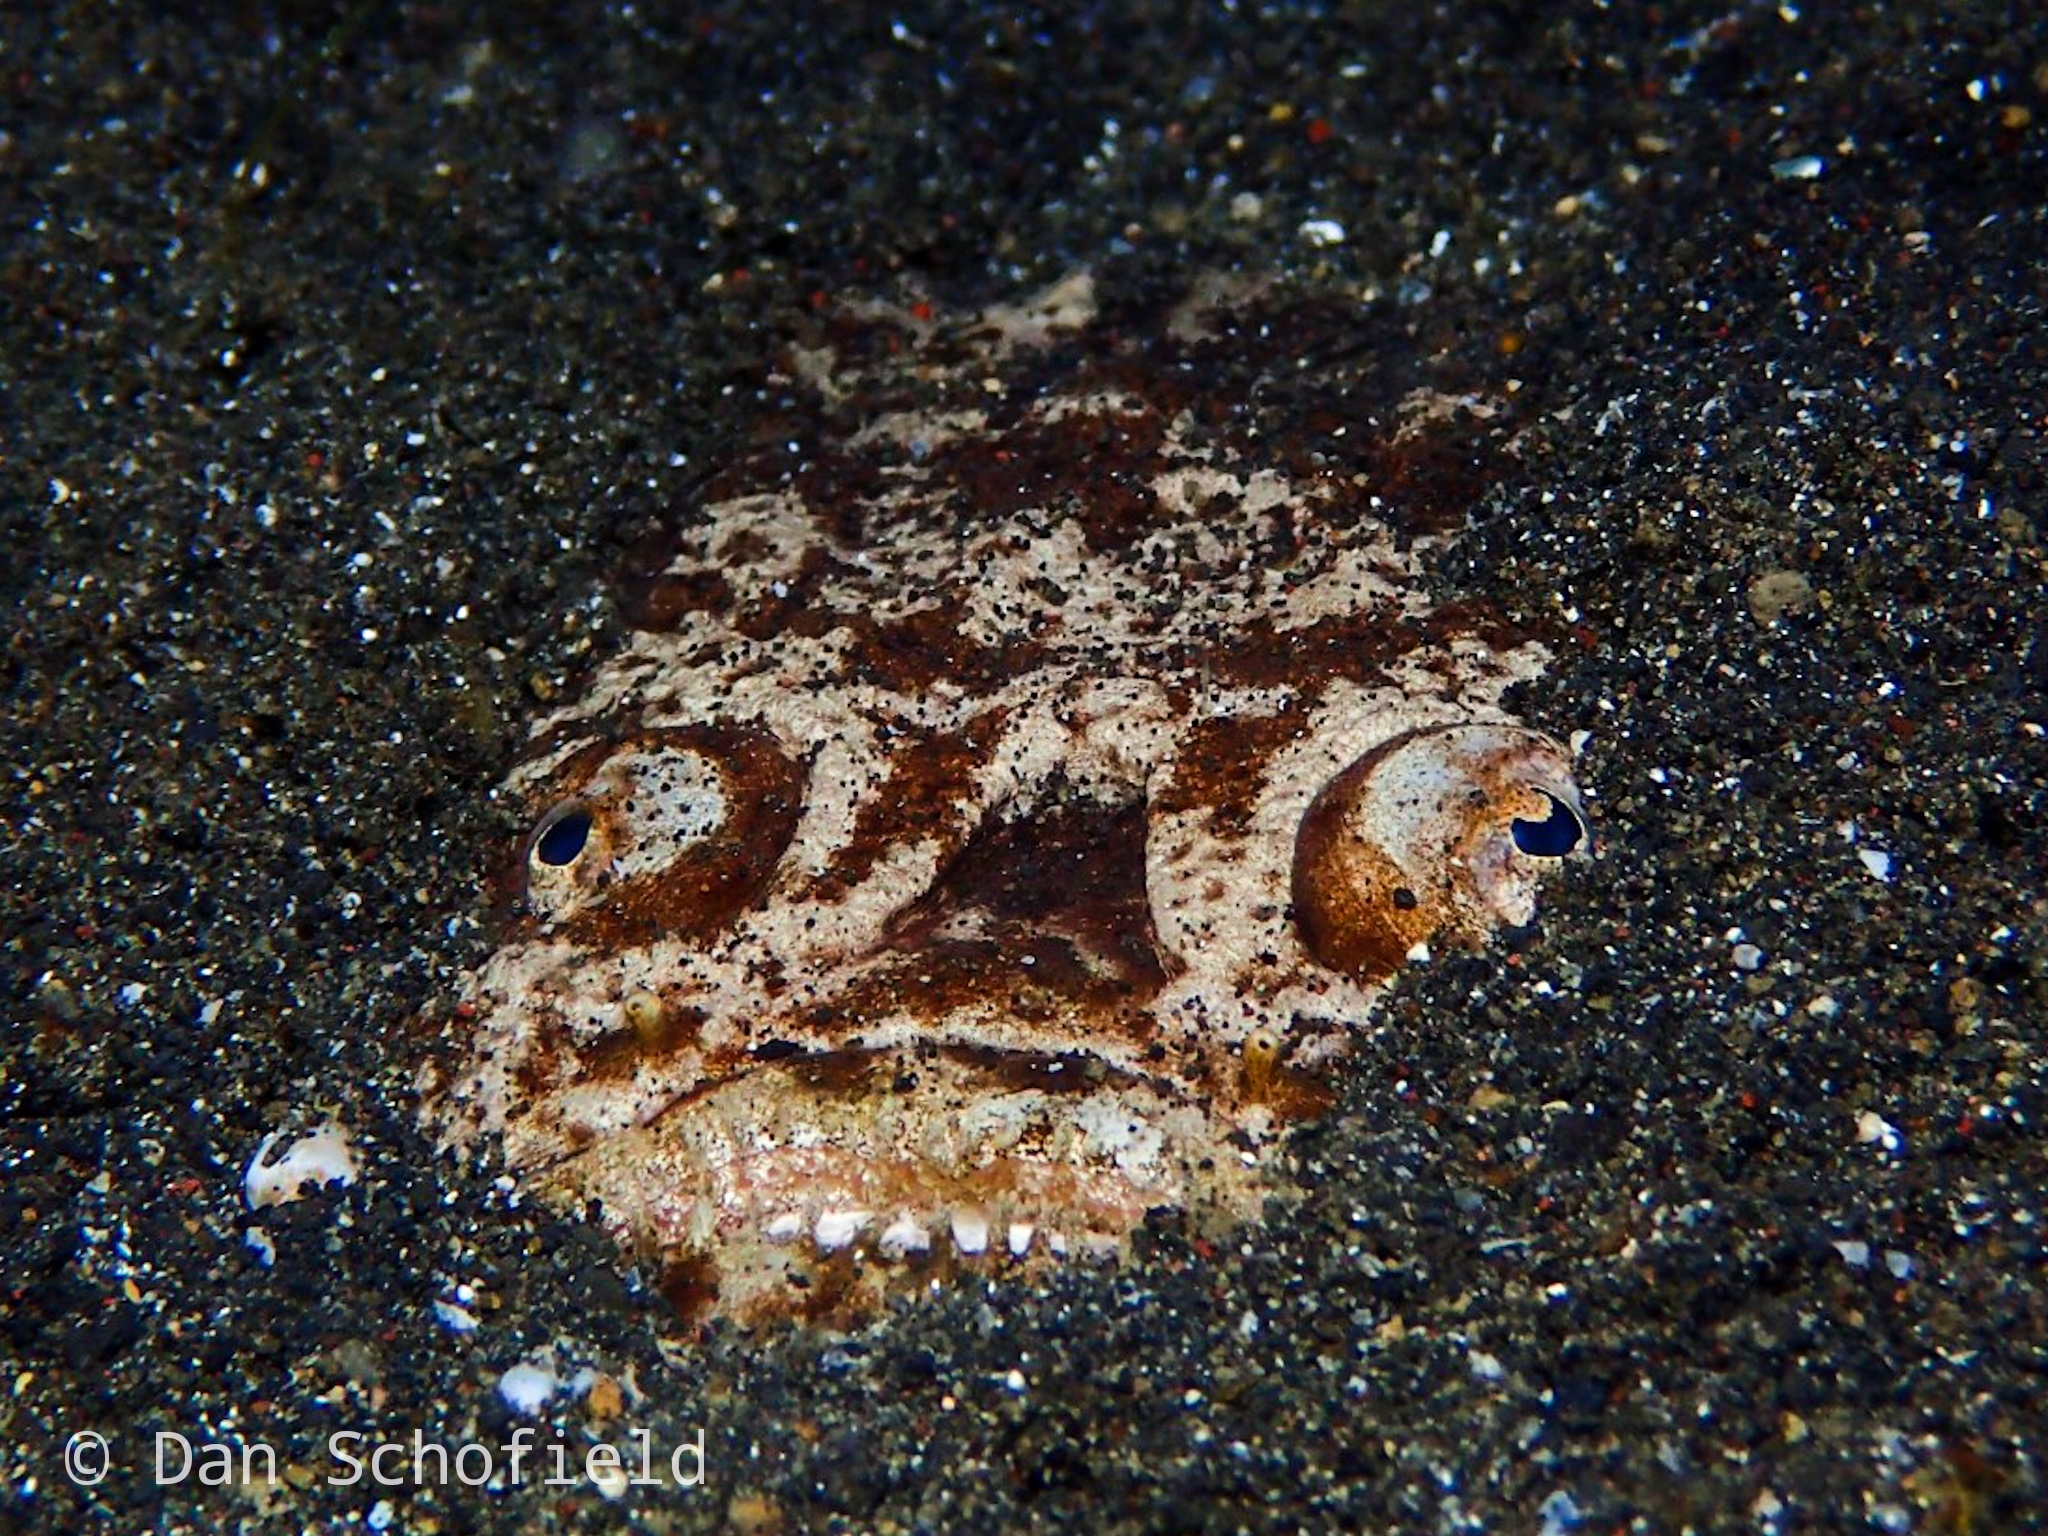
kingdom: Animalia
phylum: Chordata
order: Perciformes
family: Uranoscopidae
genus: Uranoscopus
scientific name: Uranoscopus bicinctus
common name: Marbled stargazer
